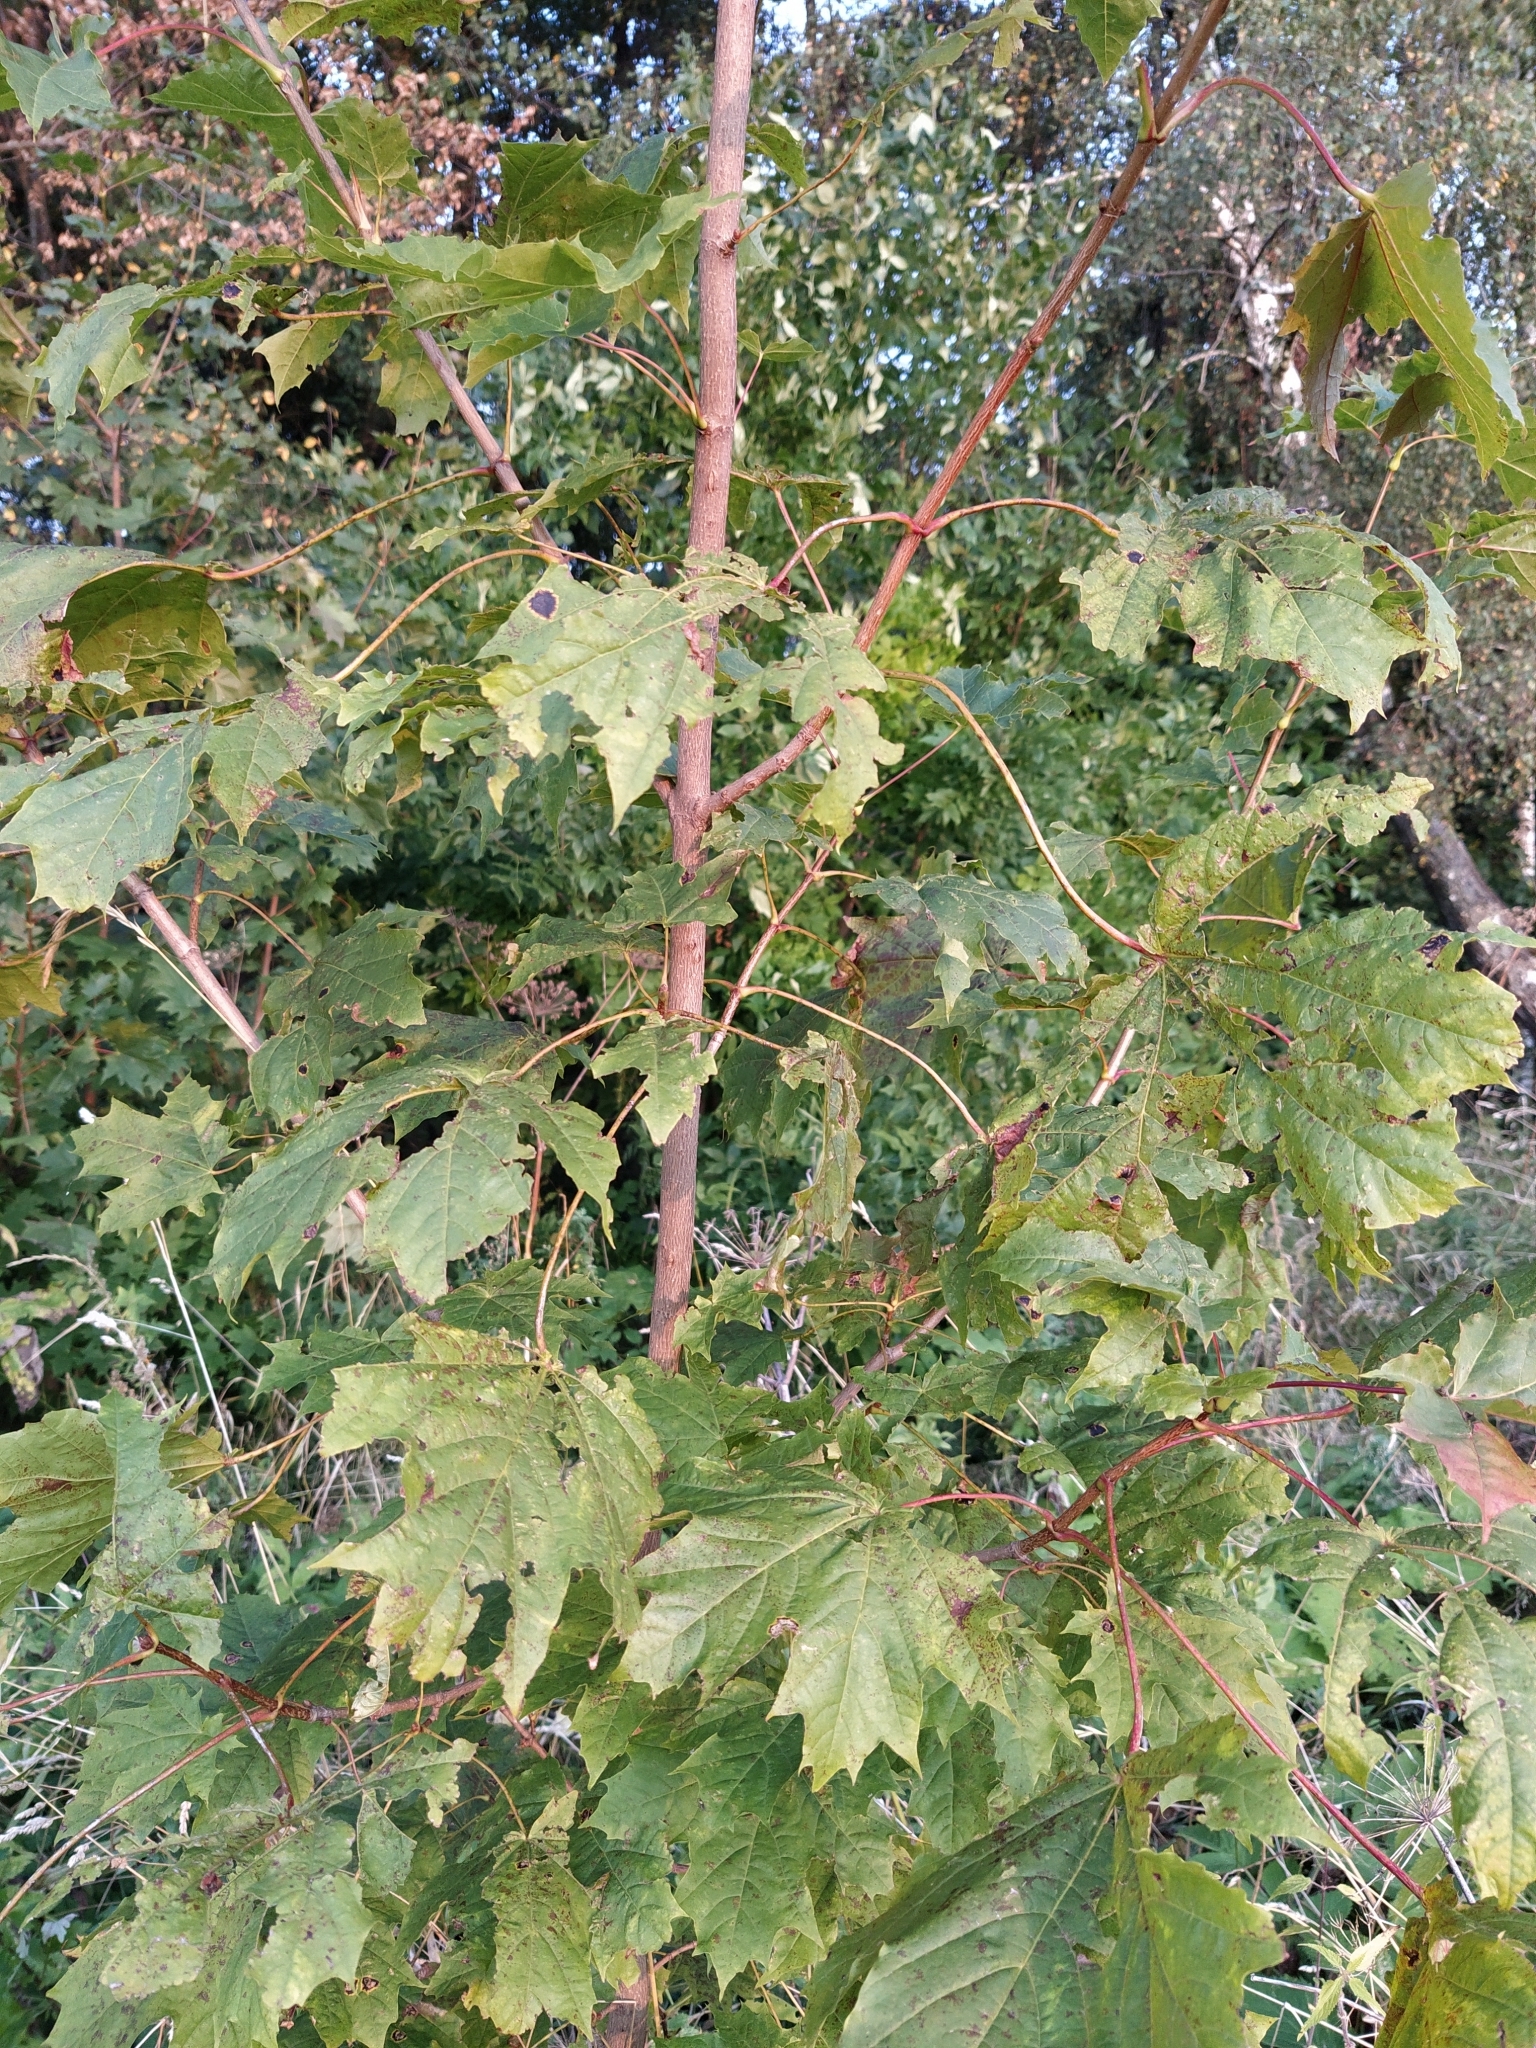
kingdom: Plantae
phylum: Tracheophyta
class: Magnoliopsida
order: Sapindales
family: Sapindaceae
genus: Acer
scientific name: Acer platanoides
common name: Norway maple
